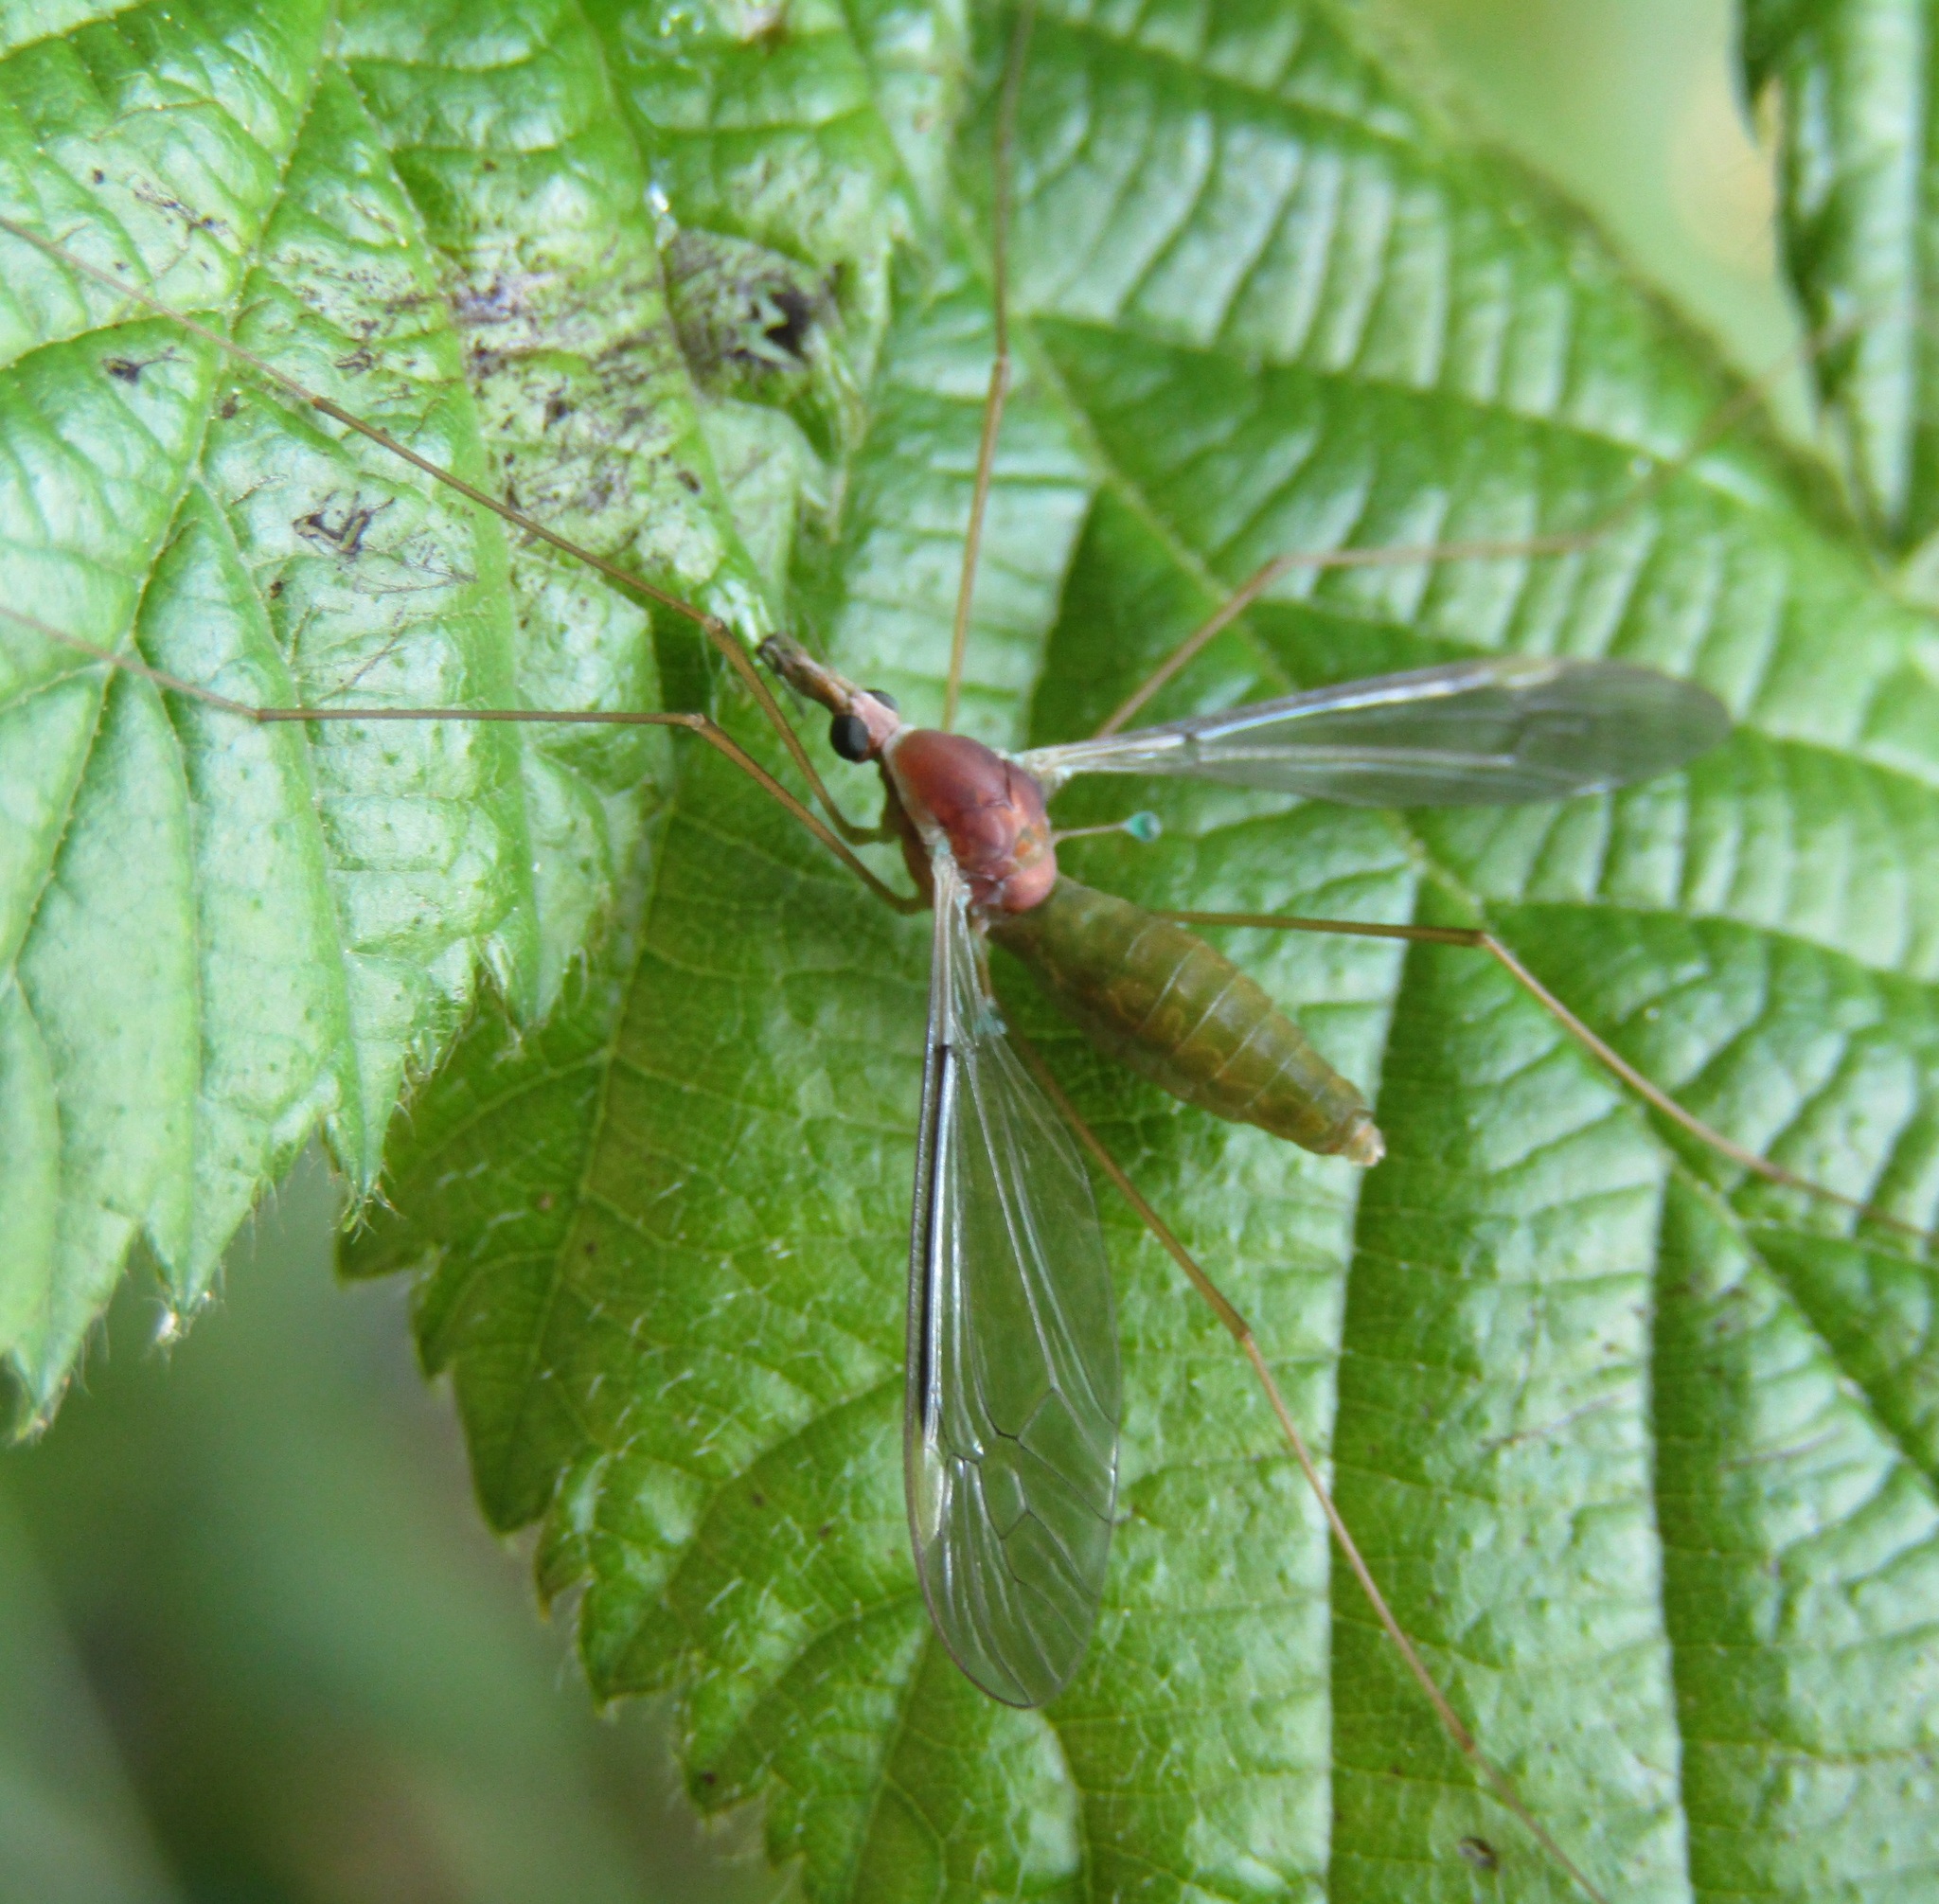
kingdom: Animalia
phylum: Arthropoda
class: Insecta
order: Diptera
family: Tipulidae
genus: Leptotarsus
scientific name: Leptotarsus pallidistigma
